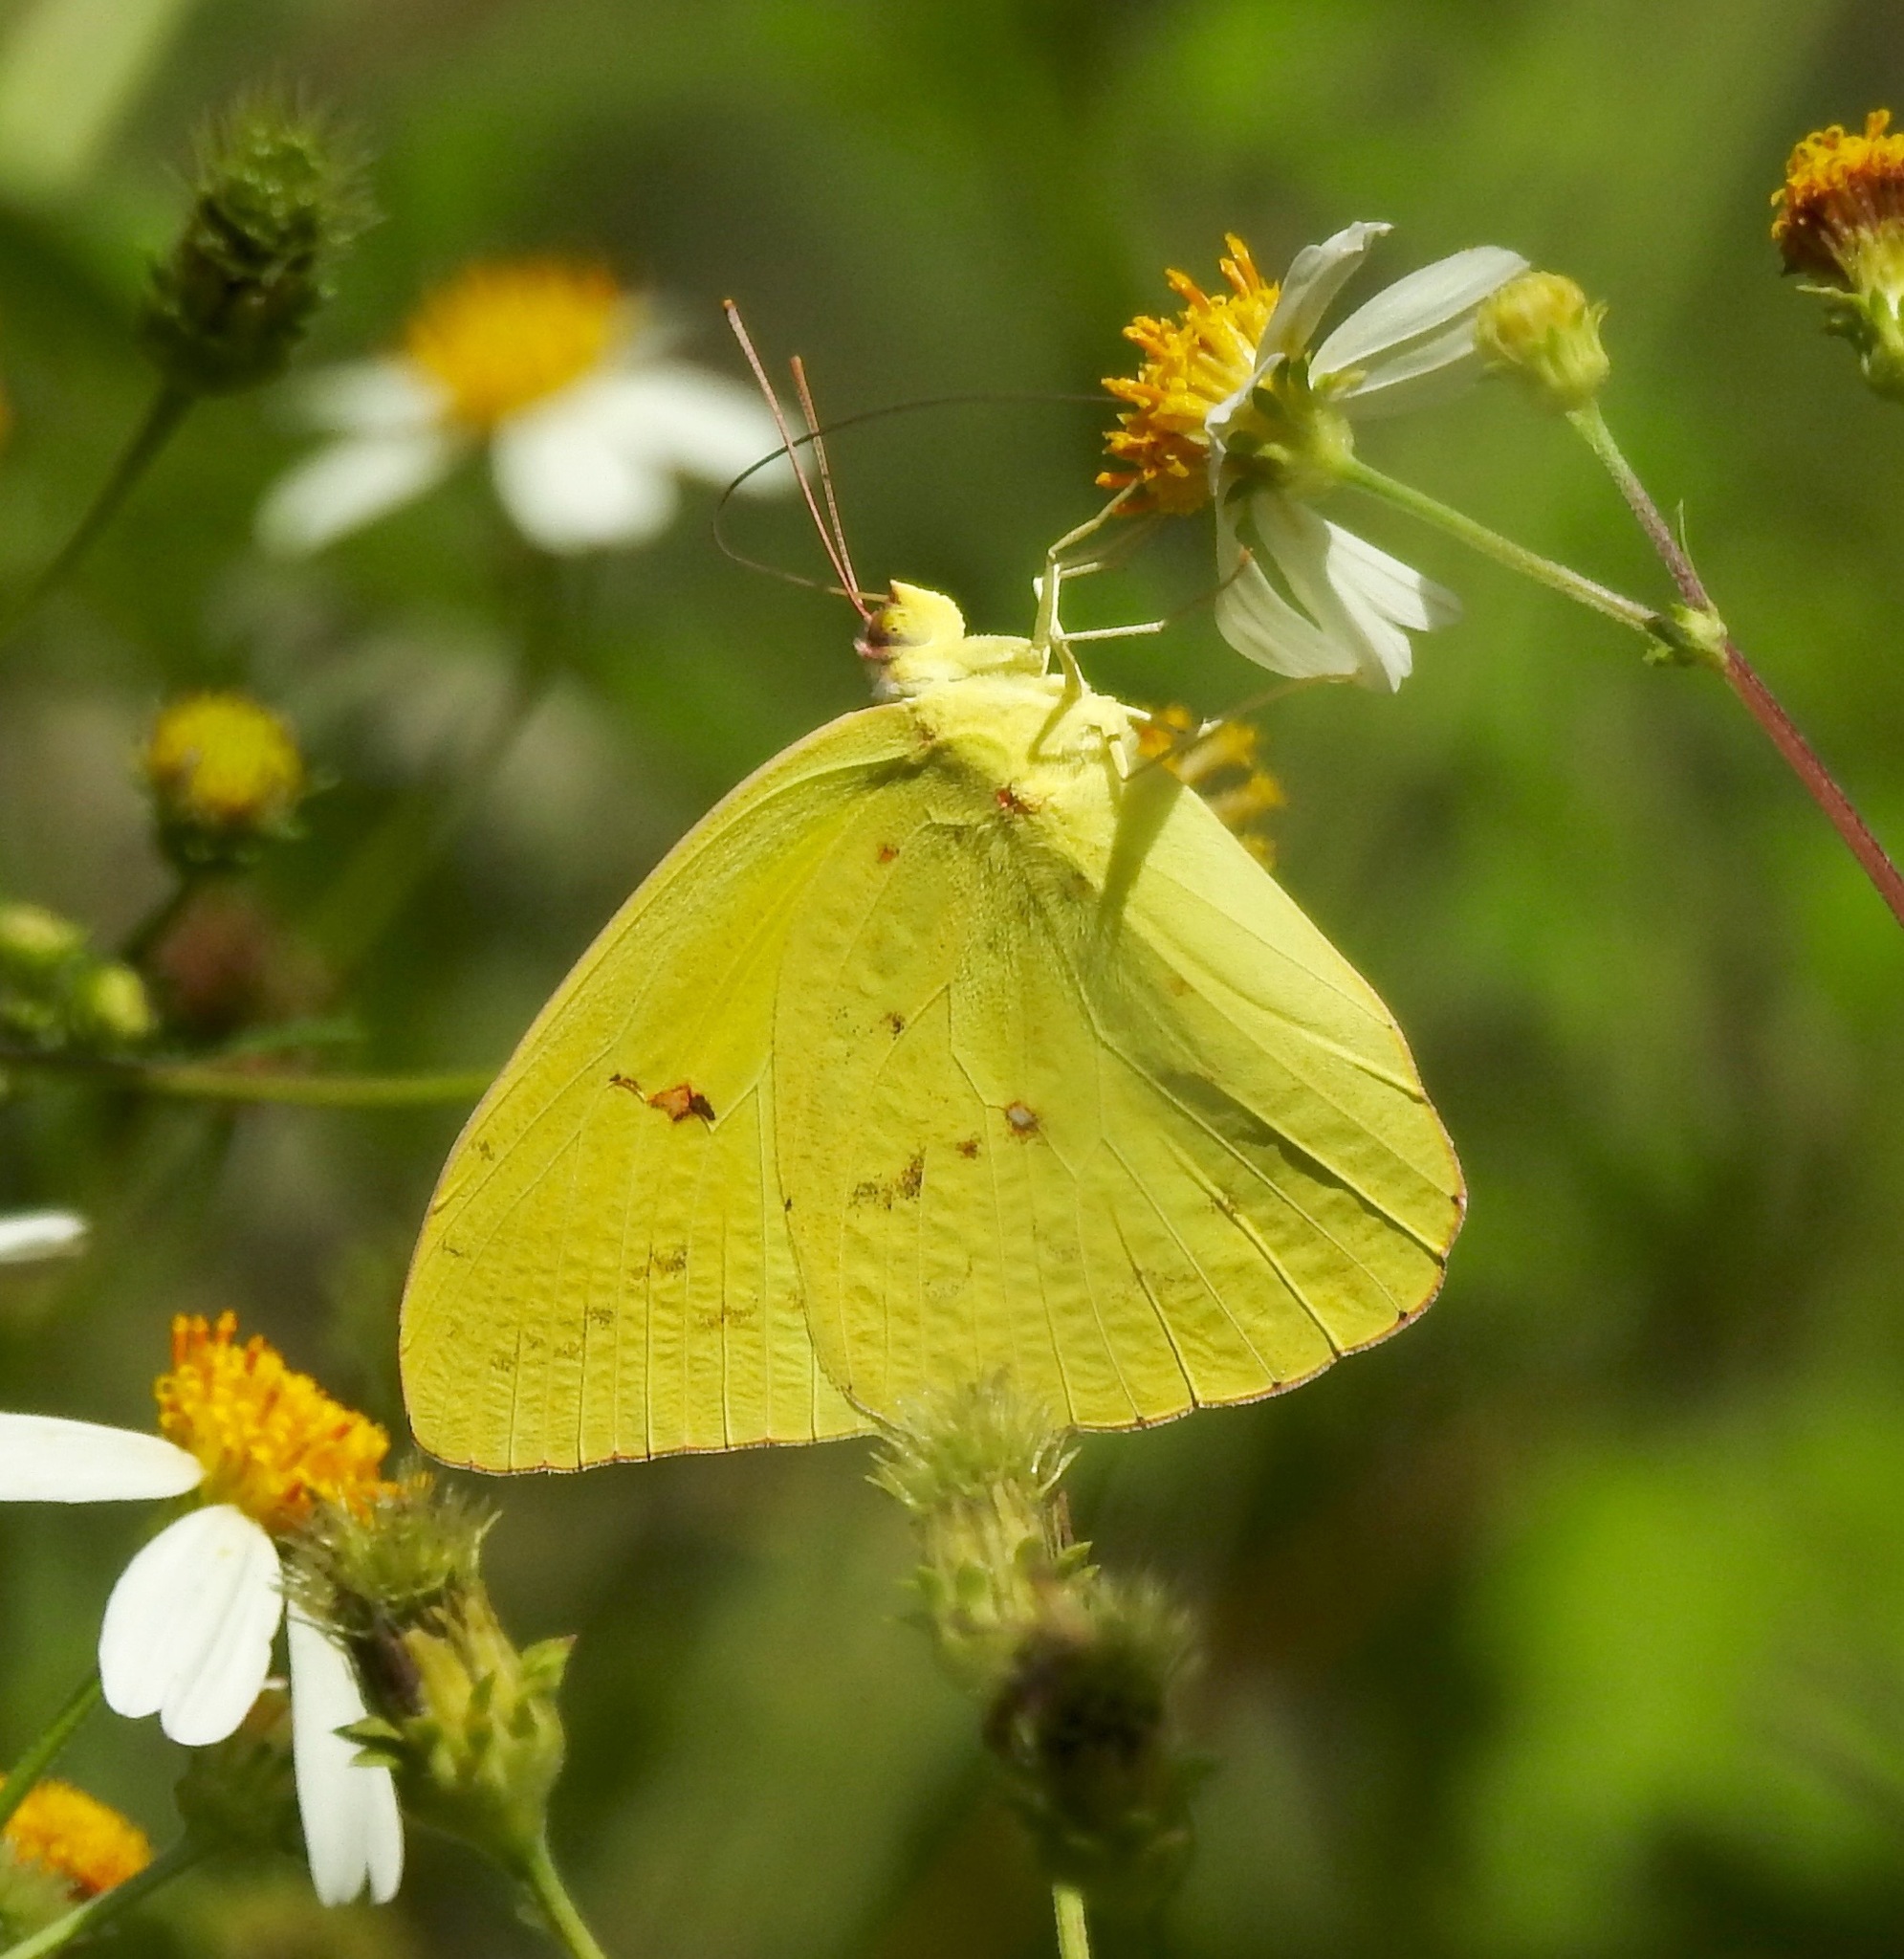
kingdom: Animalia
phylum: Arthropoda
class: Insecta
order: Lepidoptera
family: Pieridae
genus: Phoebis
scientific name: Phoebis sennae
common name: Cloudless sulphur
